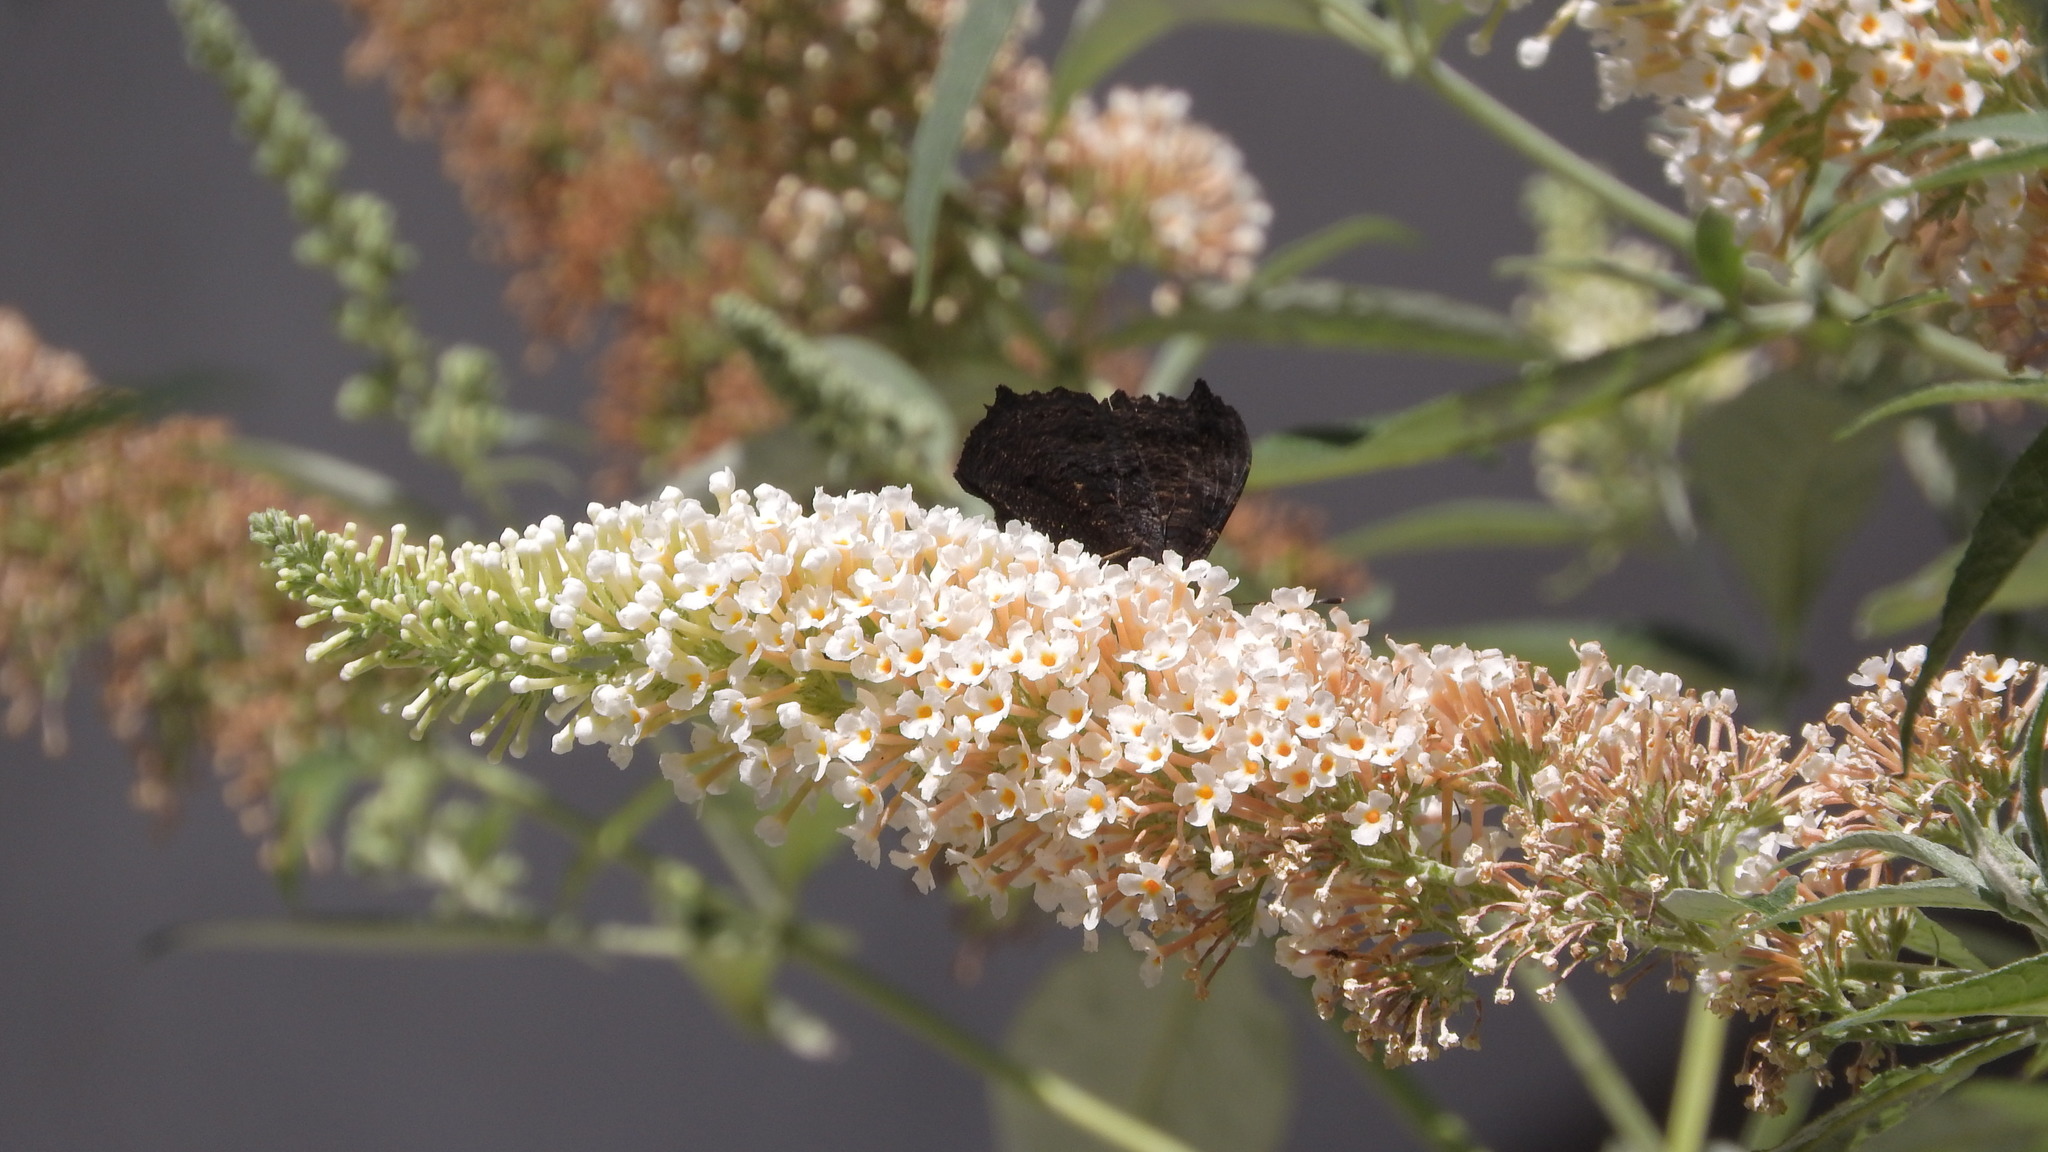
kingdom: Animalia
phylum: Arthropoda
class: Insecta
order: Lepidoptera
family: Nymphalidae
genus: Aglais
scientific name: Aglais io
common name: Peacock
